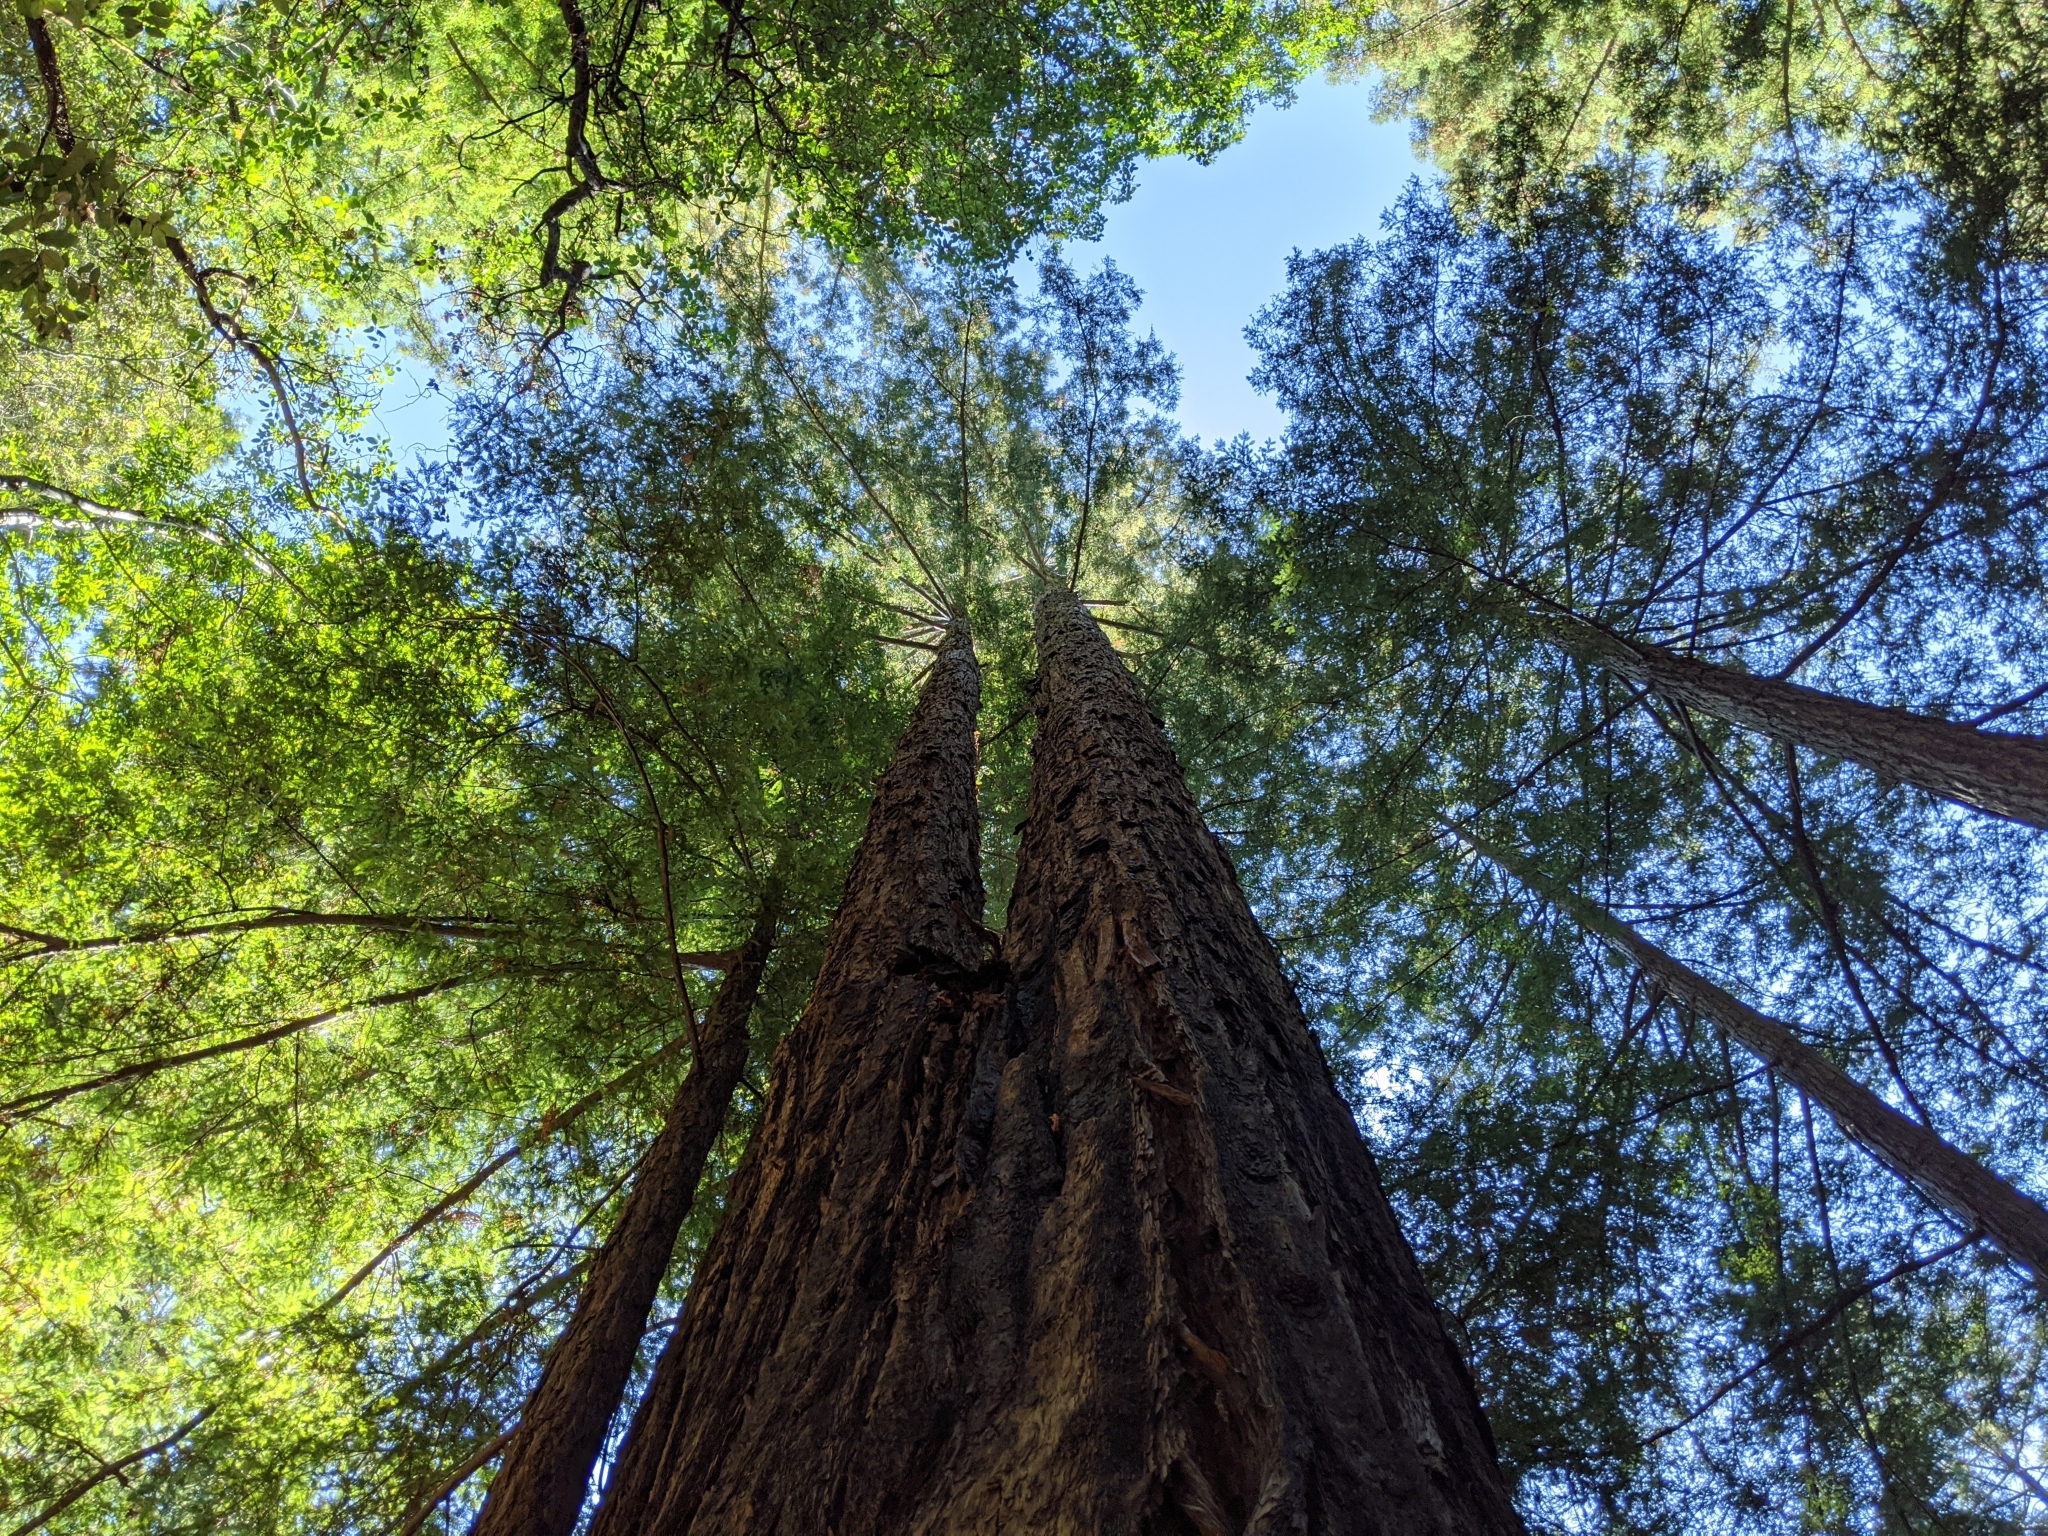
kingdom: Plantae
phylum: Tracheophyta
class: Pinopsida
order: Pinales
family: Cupressaceae
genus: Sequoia
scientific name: Sequoia sempervirens
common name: Coast redwood
